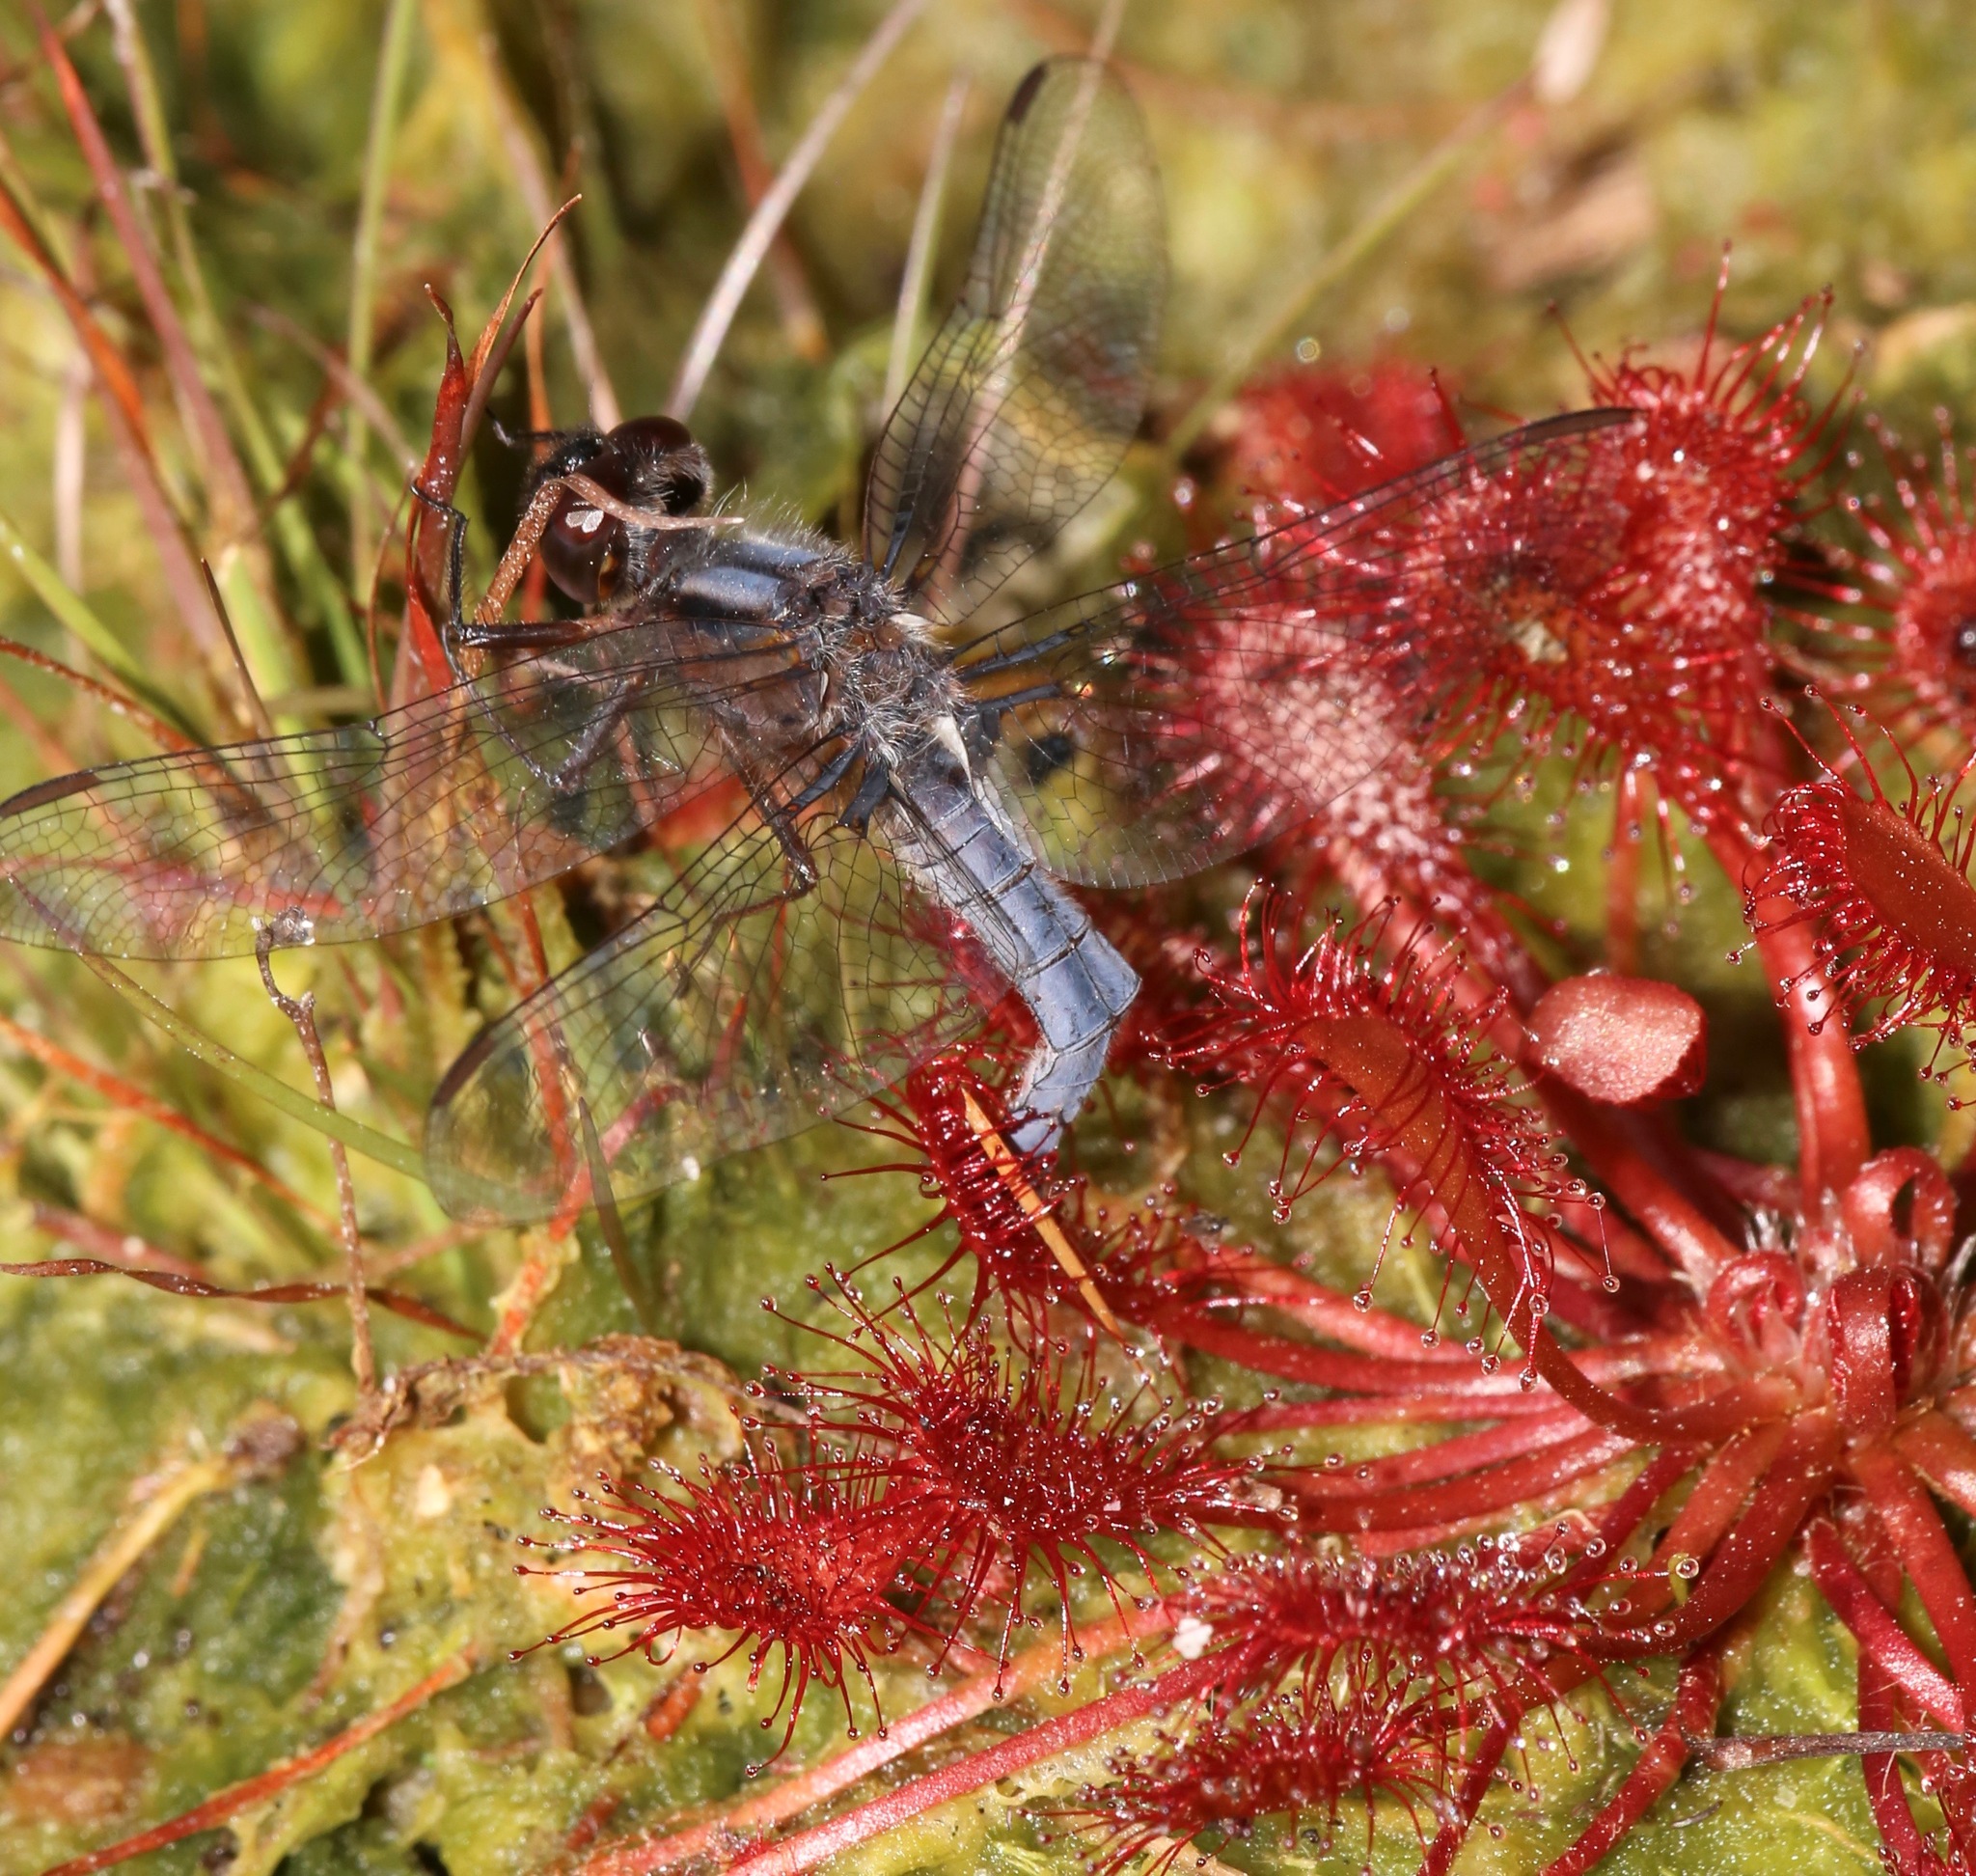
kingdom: Animalia
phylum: Arthropoda
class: Insecta
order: Odonata
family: Libellulidae
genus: Ladona
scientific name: Ladona deplanata
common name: Blue corporal
